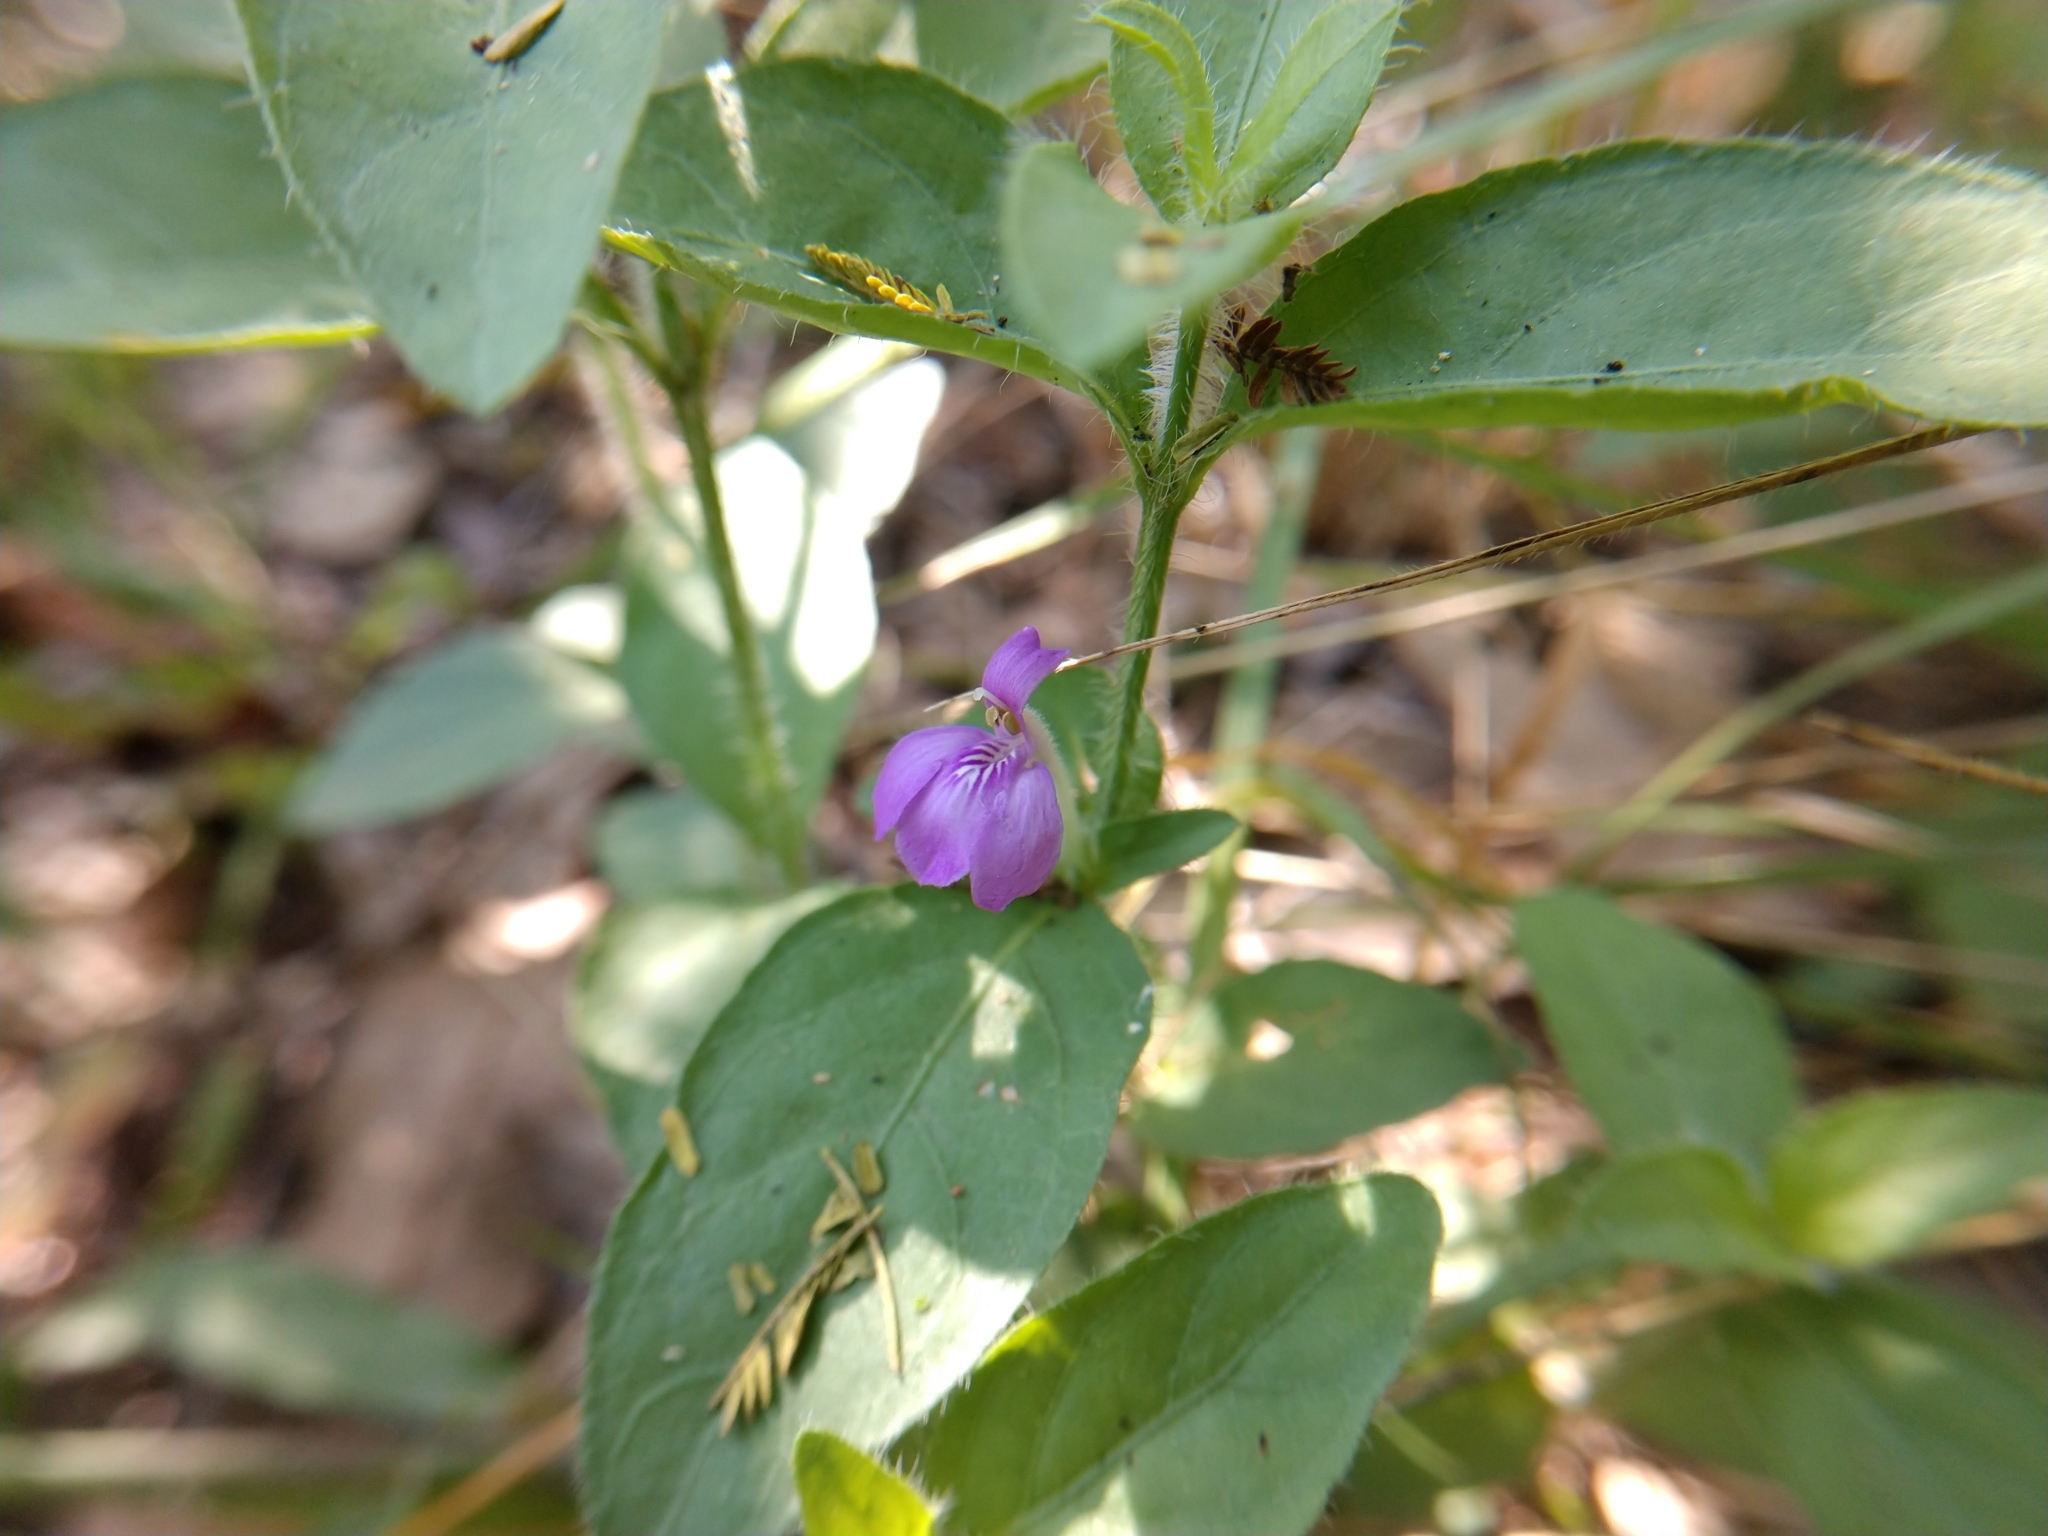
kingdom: Plantae
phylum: Tracheophyta
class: Magnoliopsida
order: Lamiales
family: Acanthaceae
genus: Justicia
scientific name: Justicia pilosella
